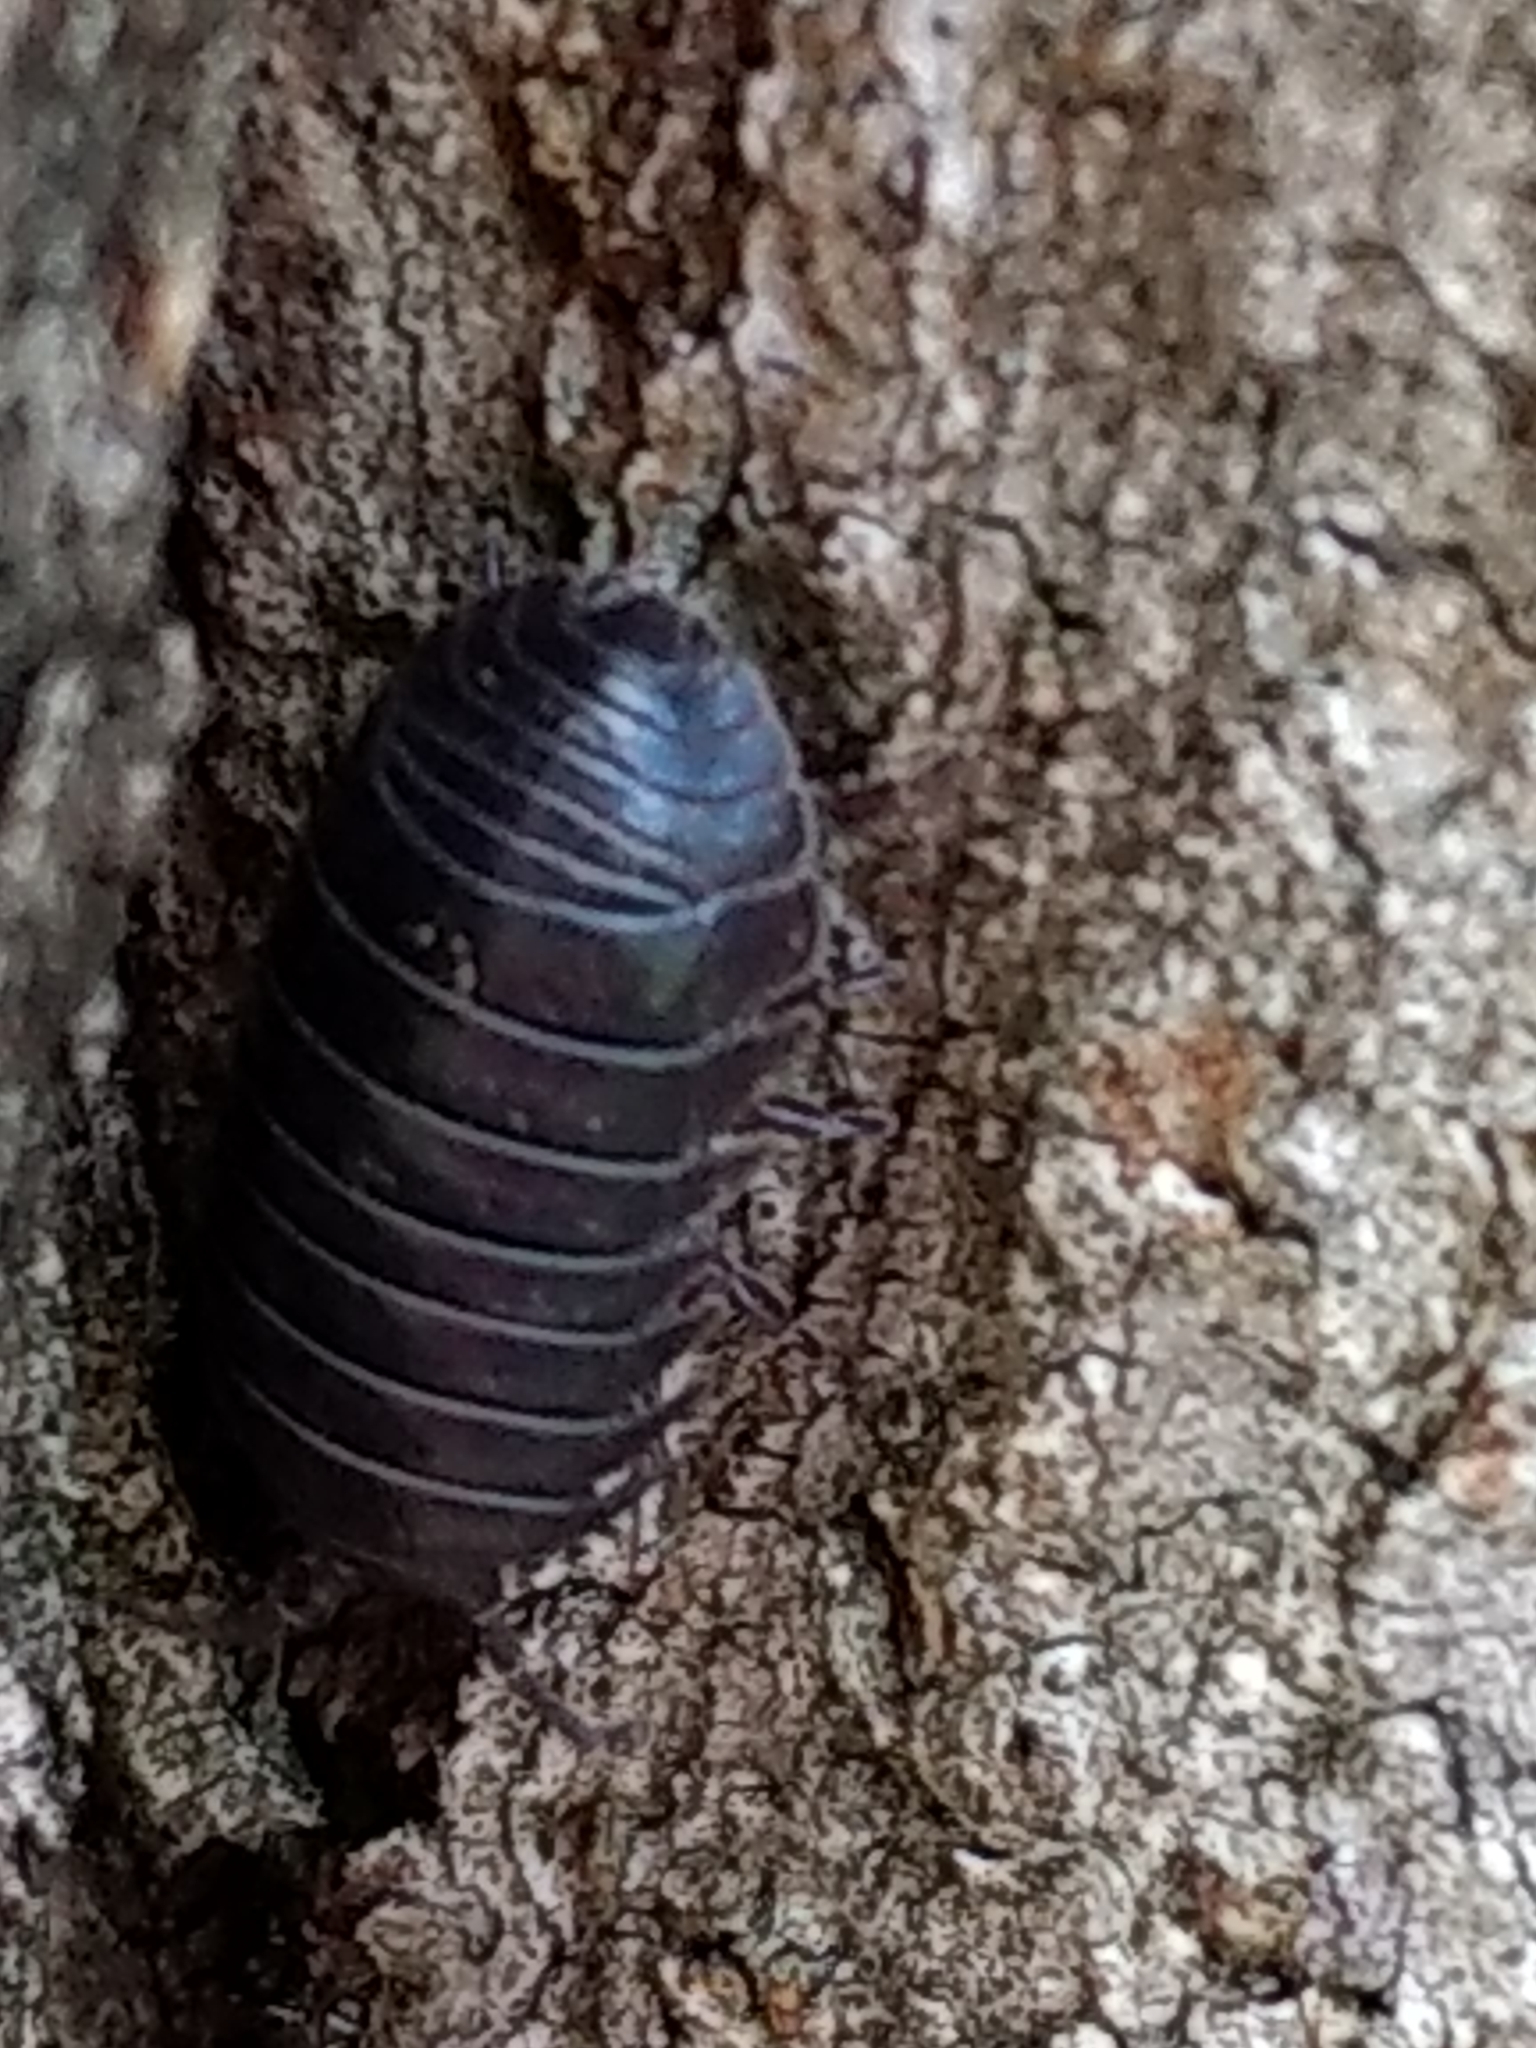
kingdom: Animalia
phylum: Arthropoda
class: Malacostraca
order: Isopoda
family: Armadillidiidae
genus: Armadillidium
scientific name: Armadillidium vulgare
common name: Common pill woodlouse
